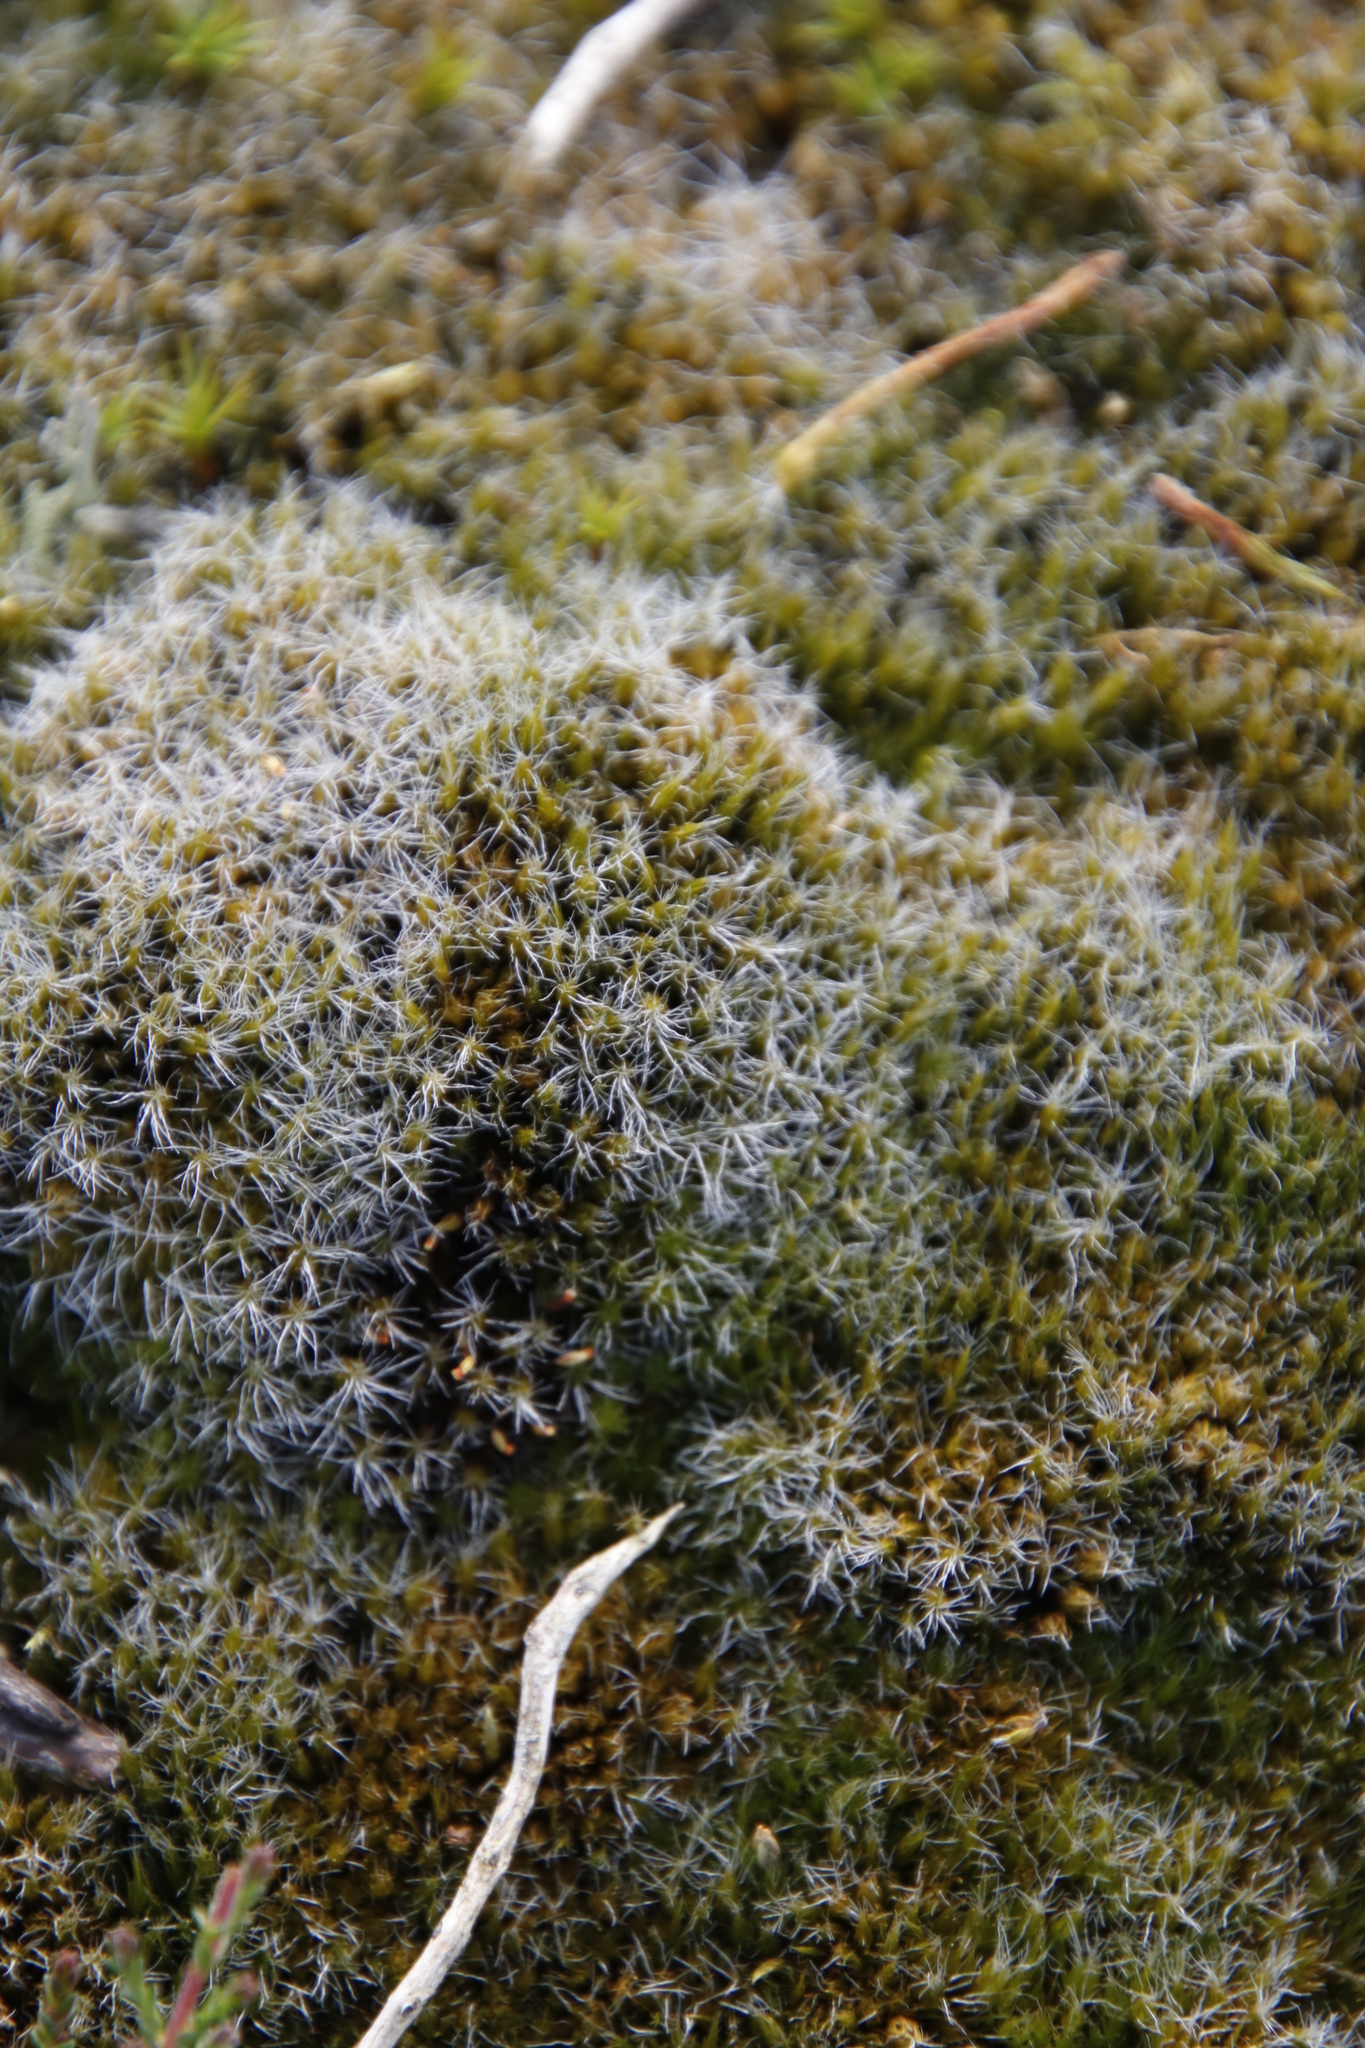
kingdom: Plantae
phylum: Bryophyta
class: Bryopsida
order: Dicranales
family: Leucobryaceae
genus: Campylopus
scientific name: Campylopus introflexus
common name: Heath star moss
